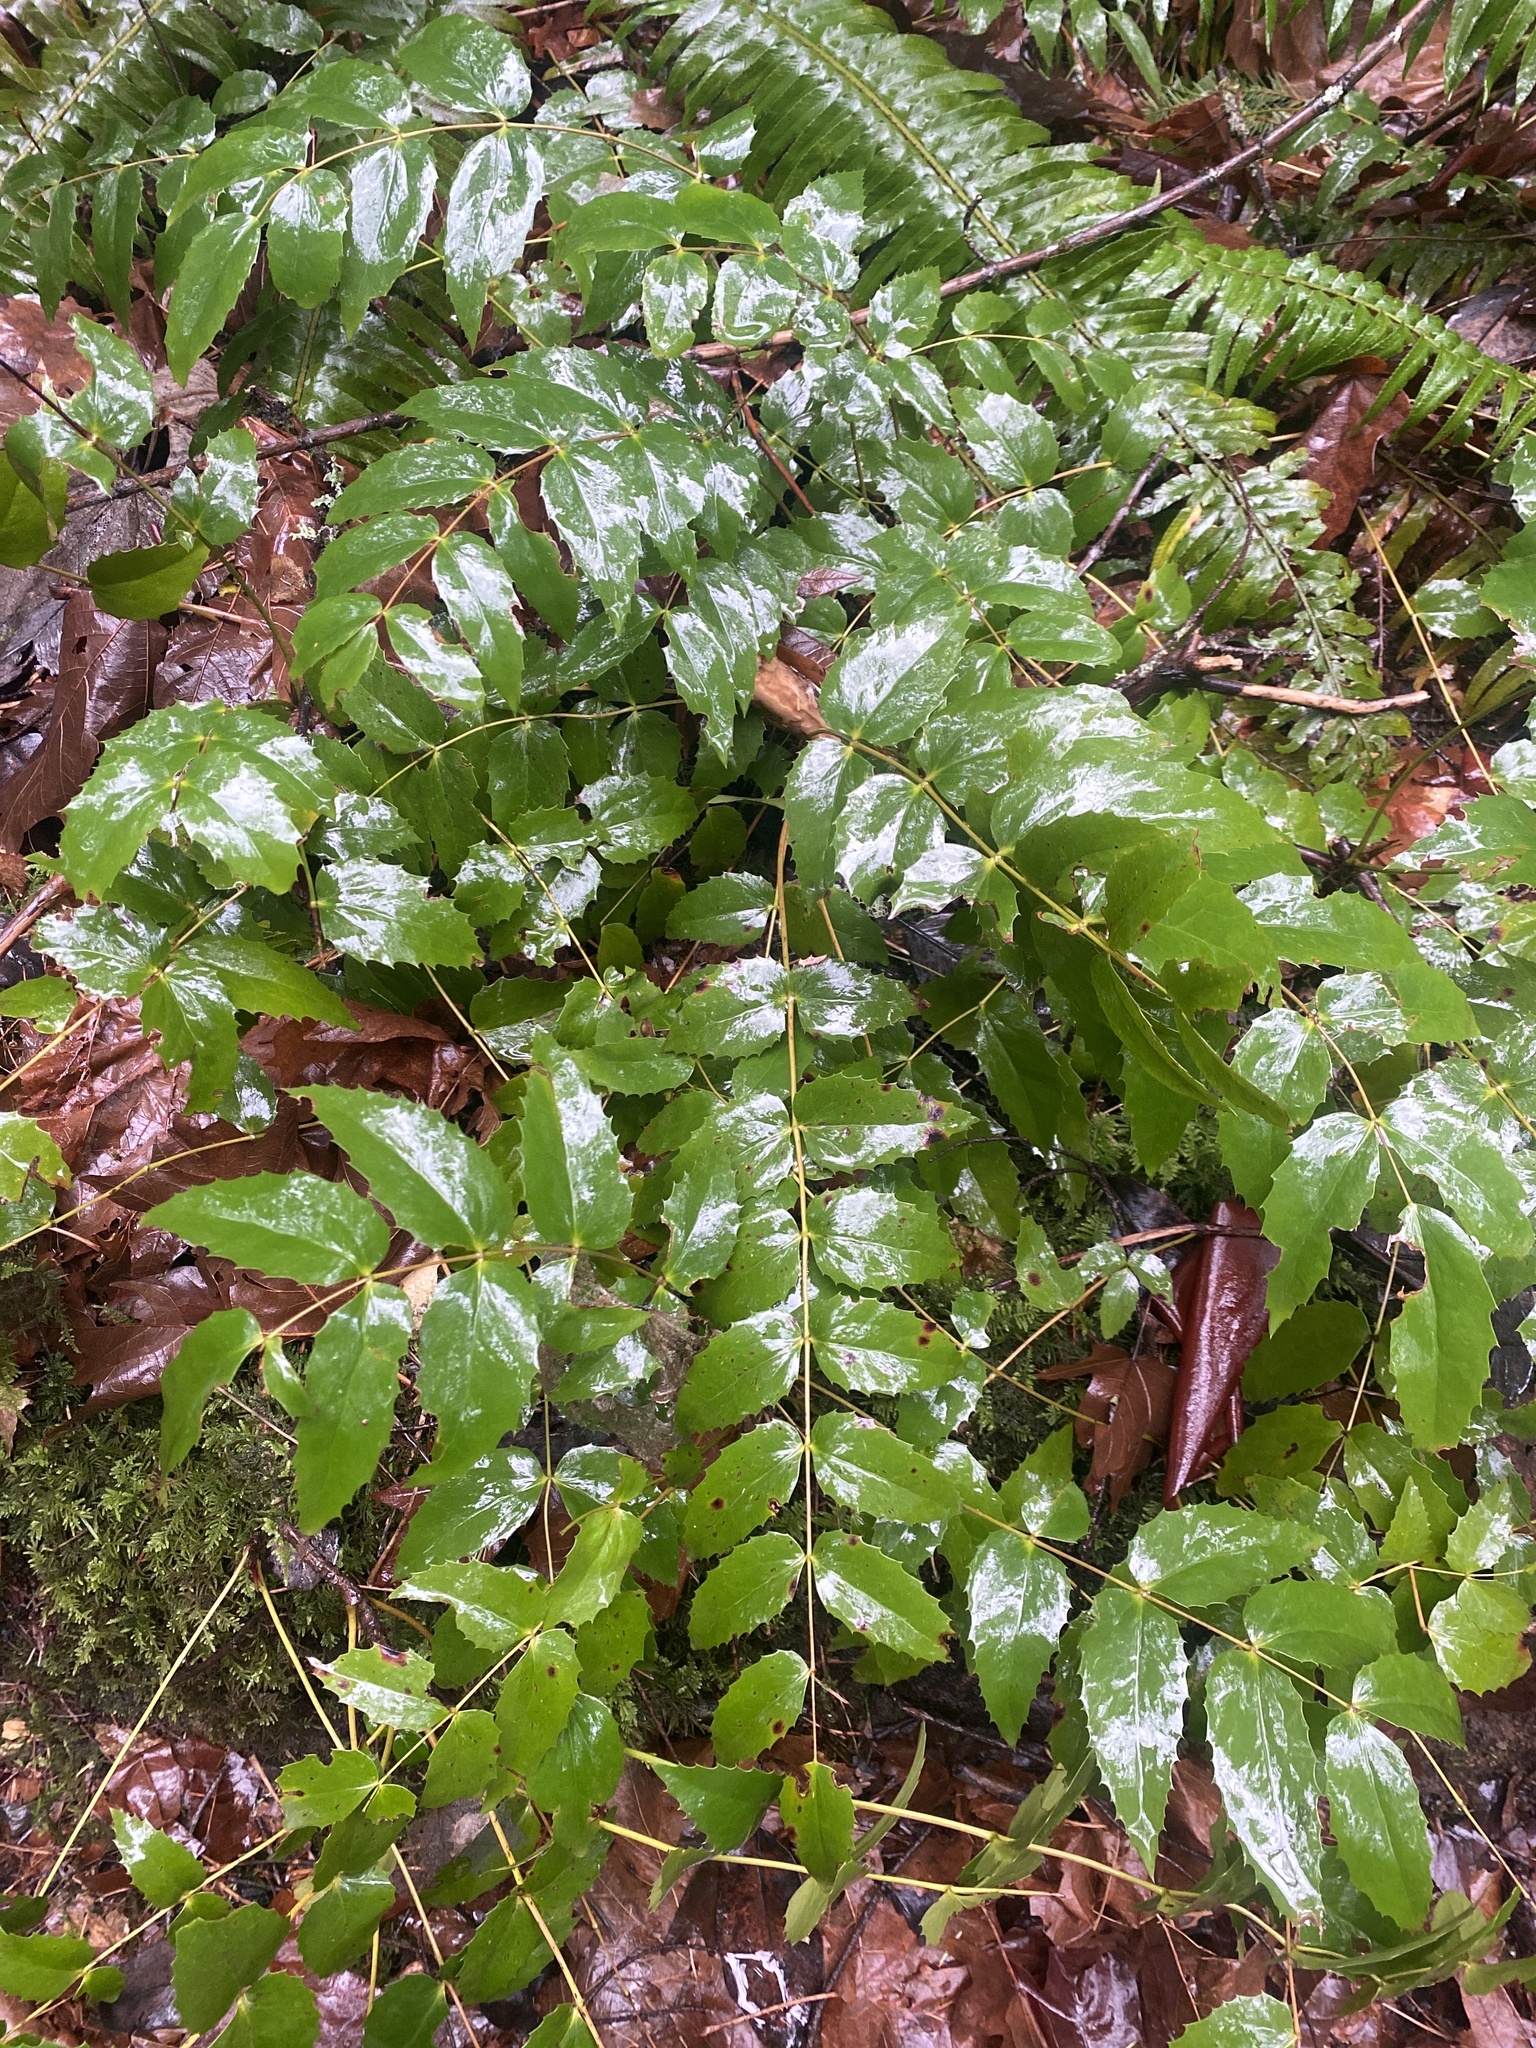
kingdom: Plantae
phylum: Tracheophyta
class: Magnoliopsida
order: Ranunculales
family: Berberidaceae
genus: Mahonia
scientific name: Mahonia nervosa
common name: Cascade oregon-grape
